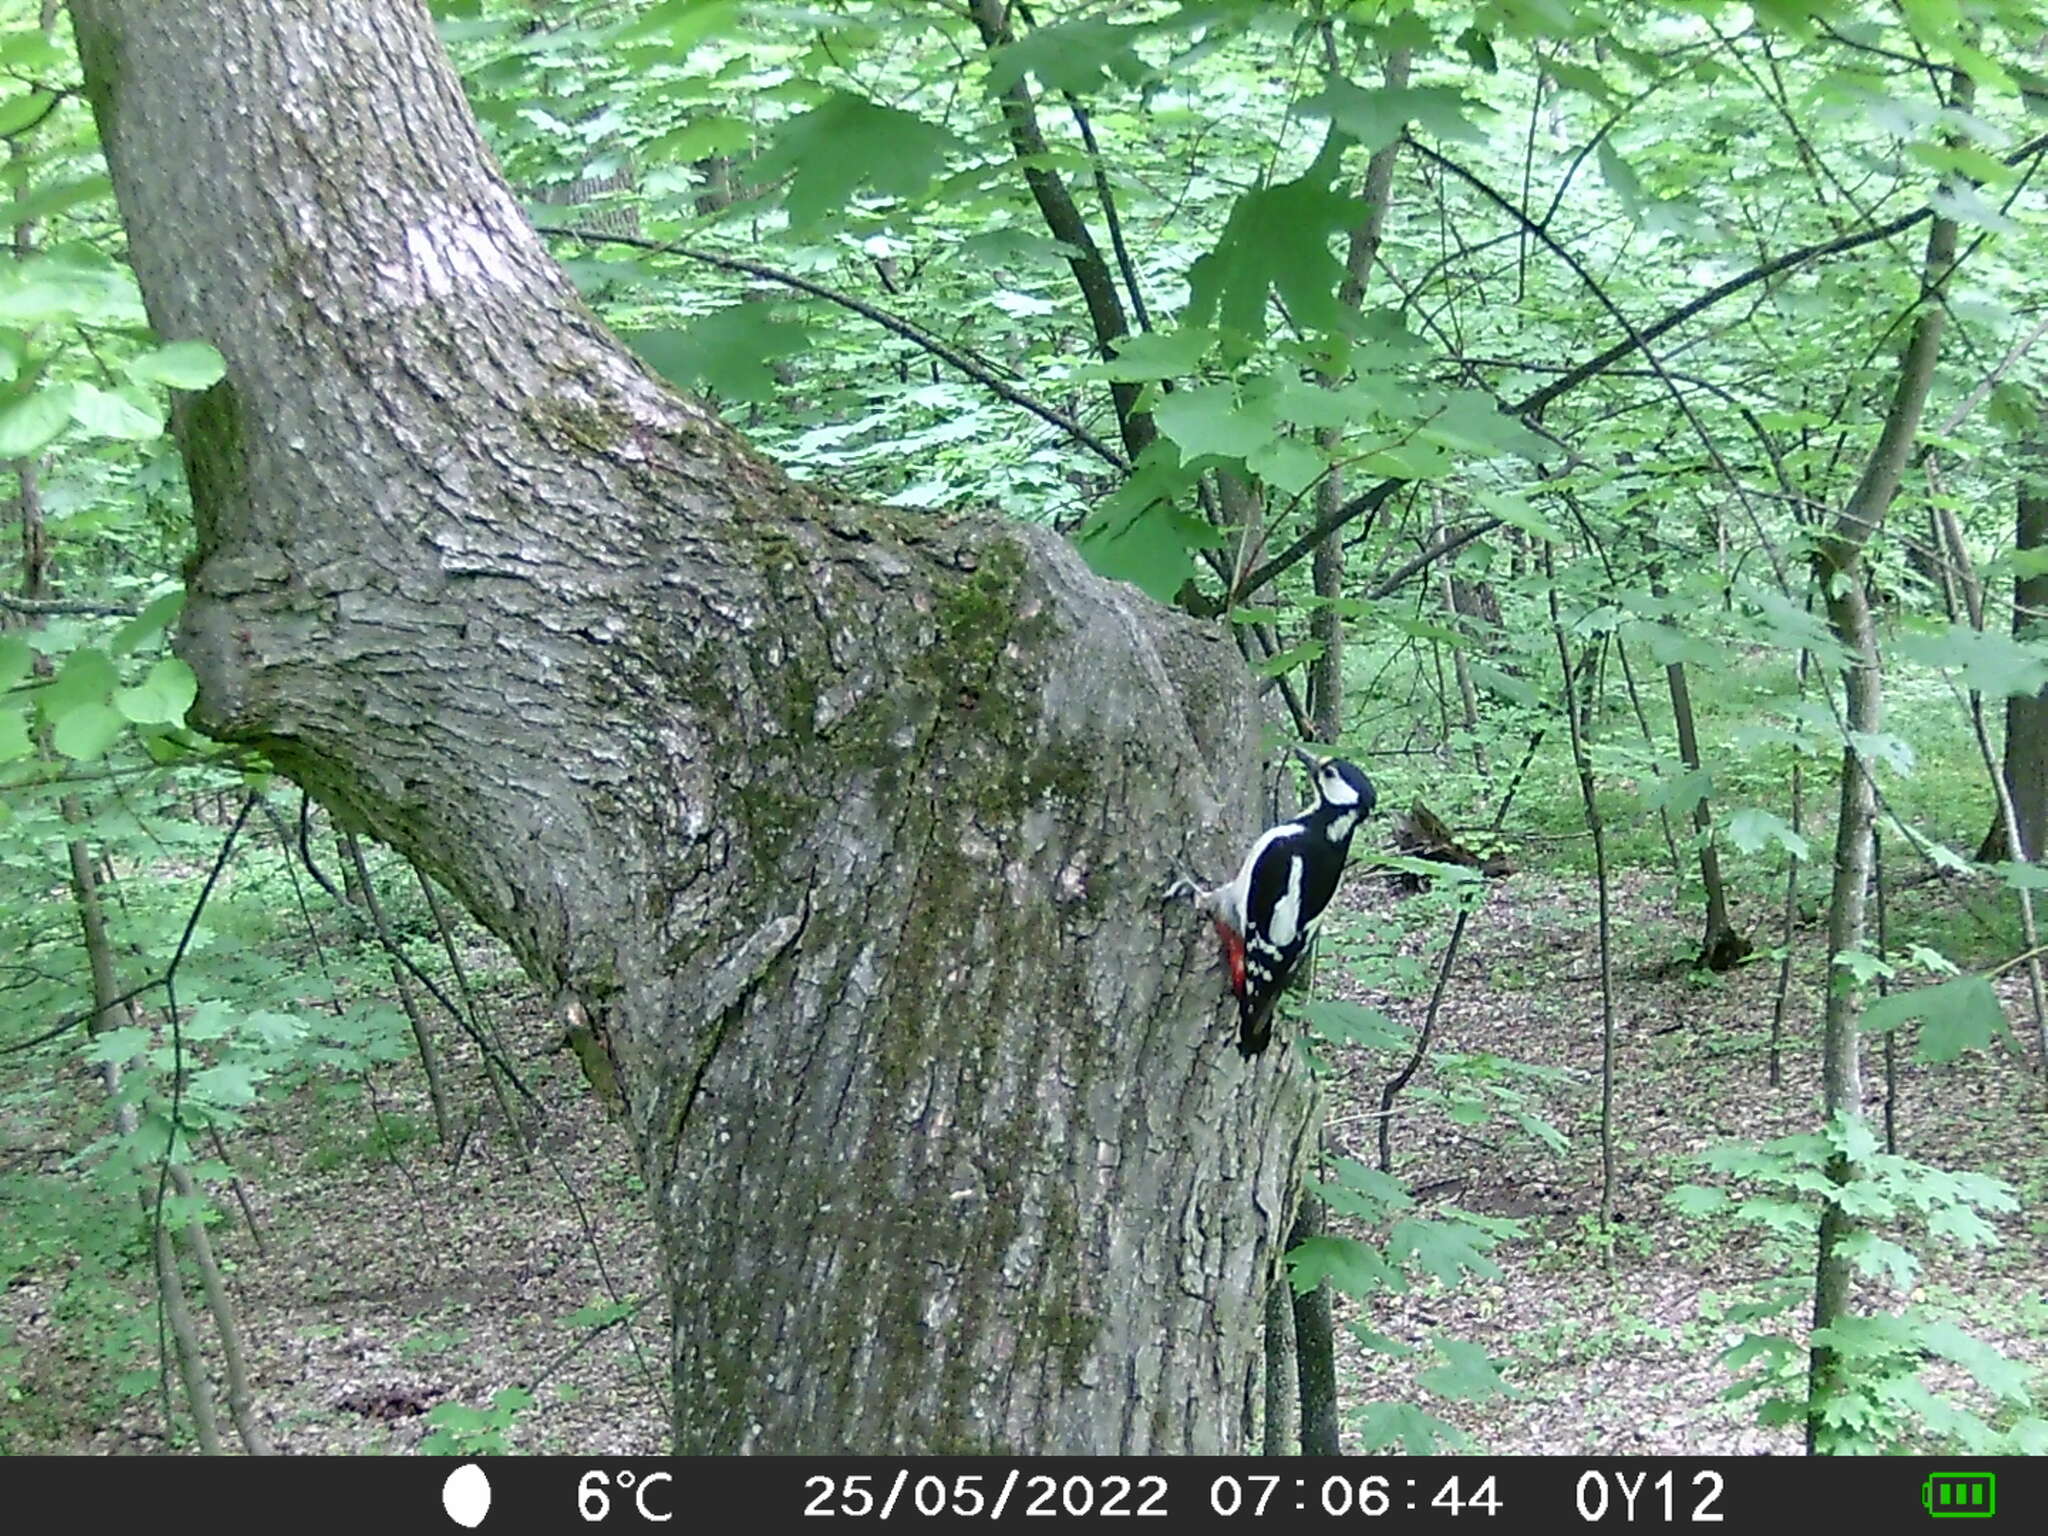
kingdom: Animalia
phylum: Chordata
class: Aves
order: Piciformes
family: Picidae
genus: Dendrocopos
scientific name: Dendrocopos major
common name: Great spotted woodpecker
